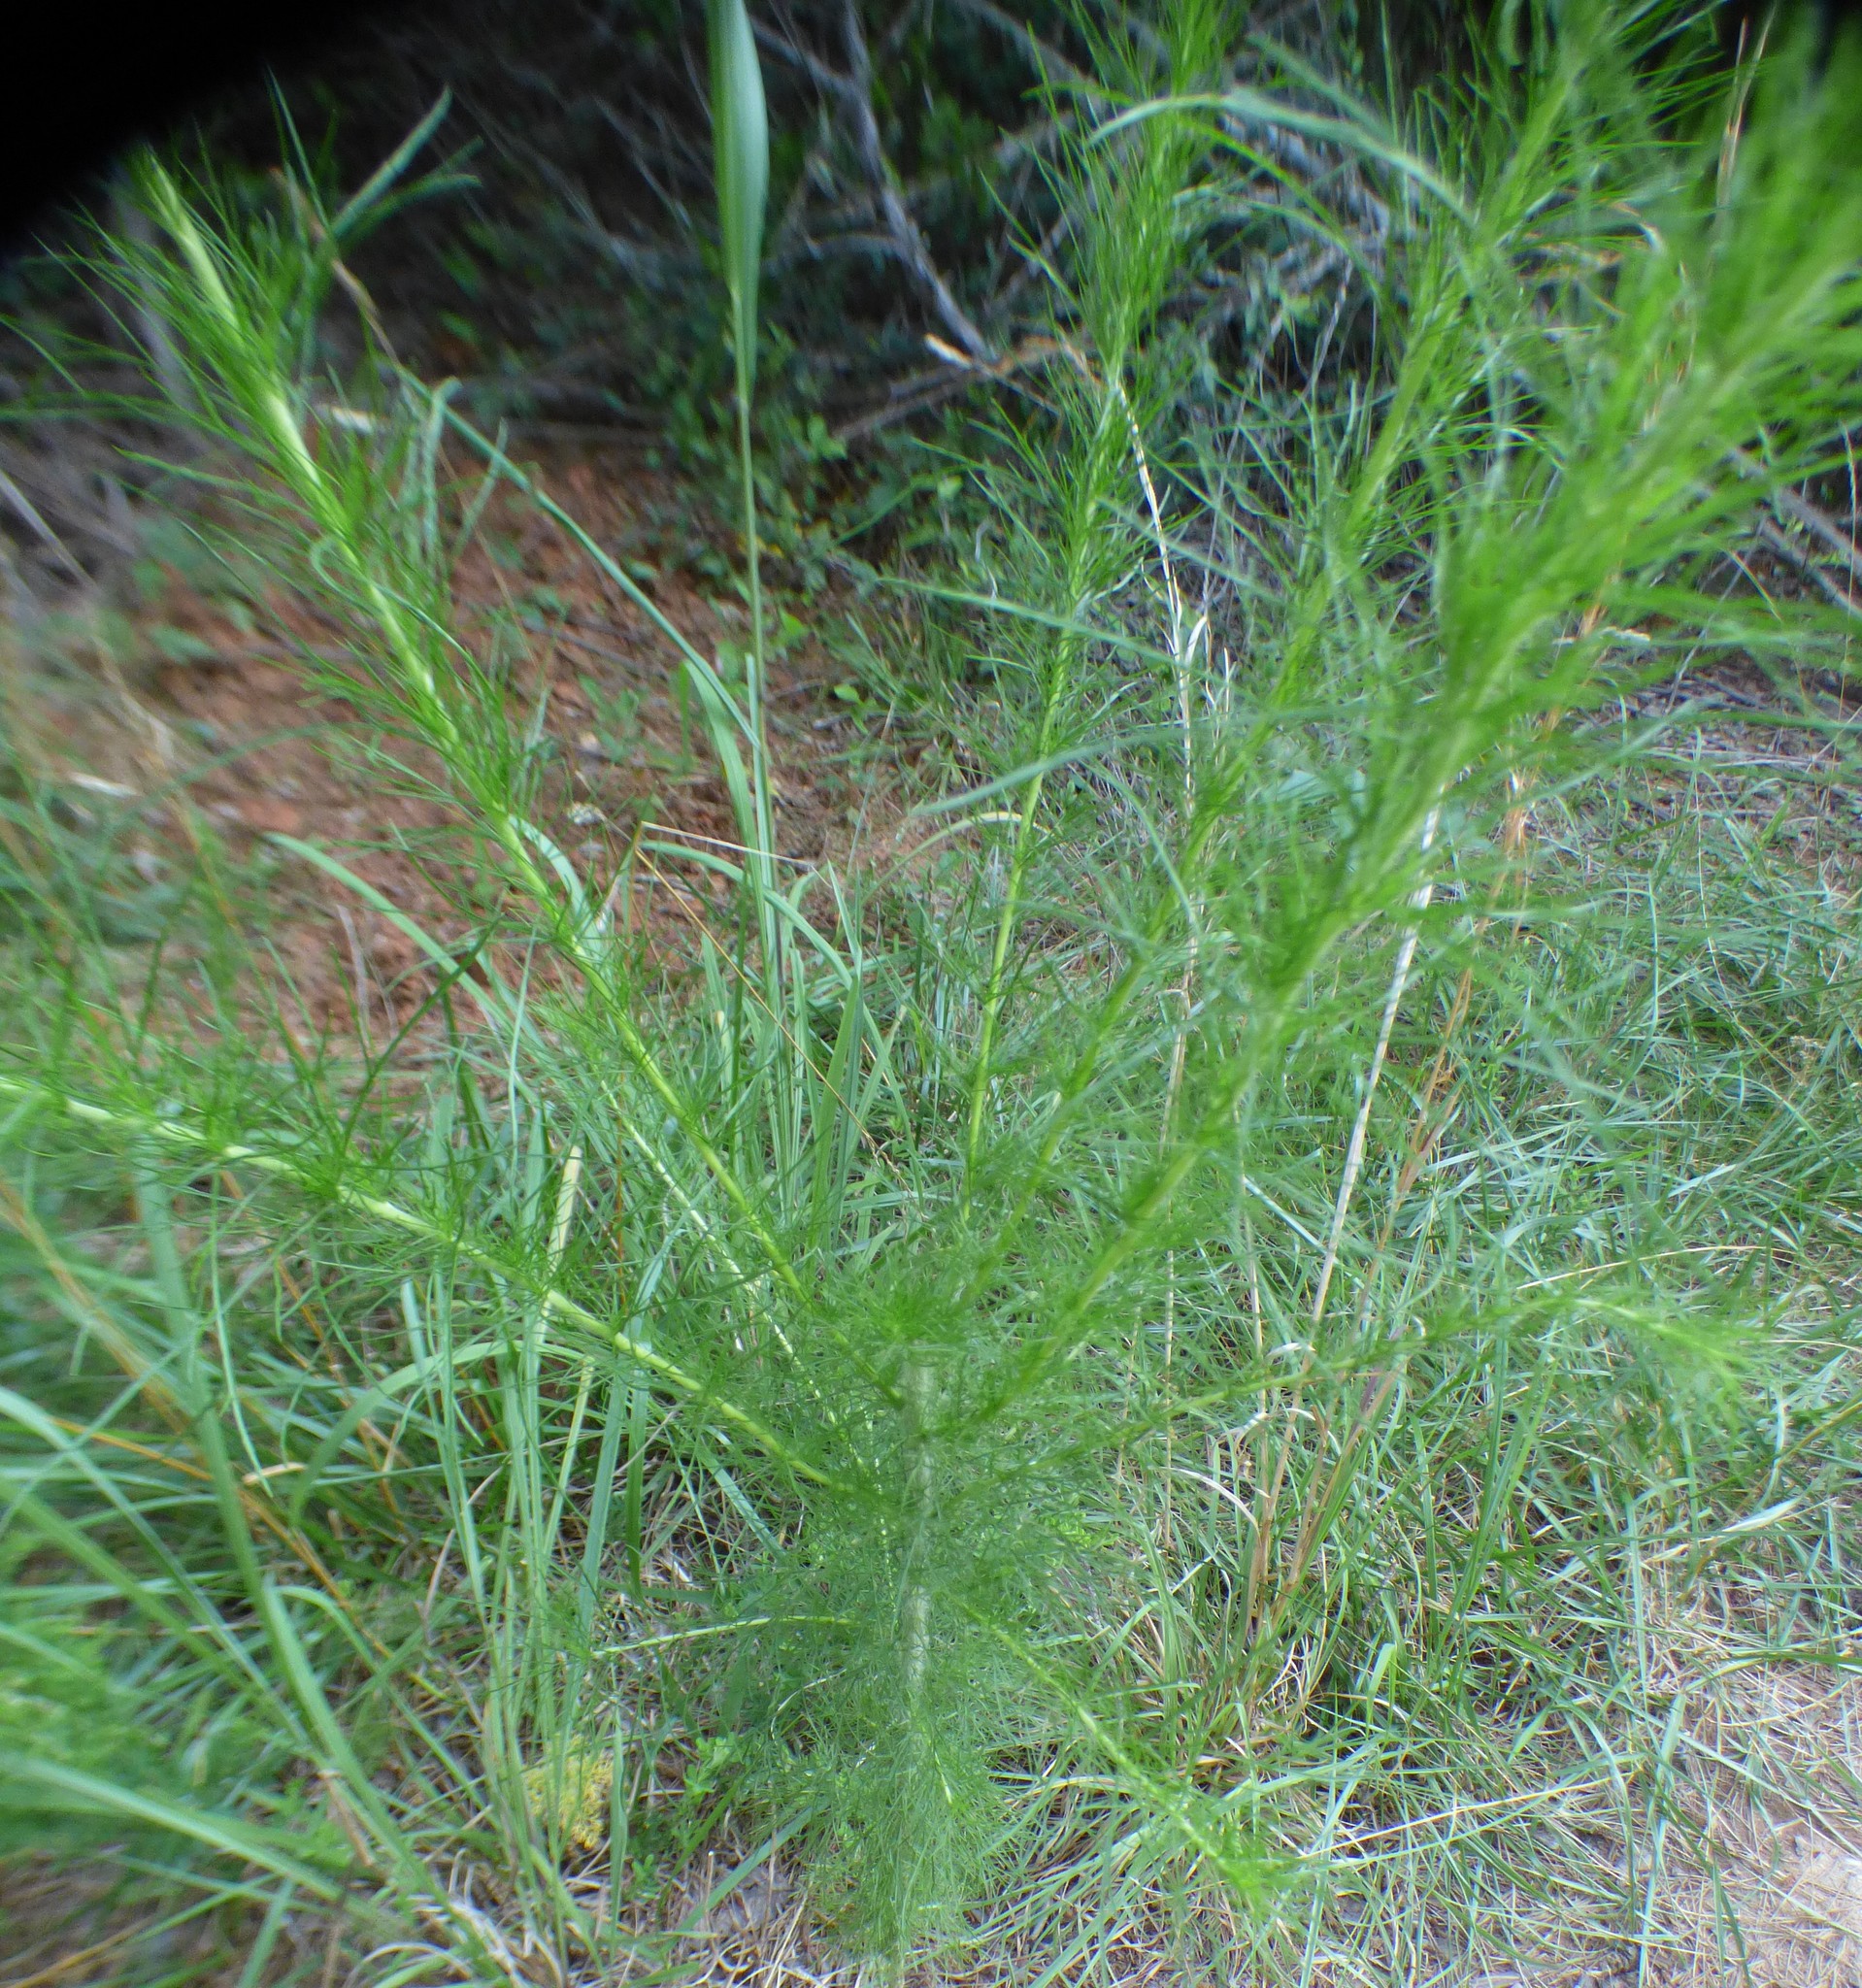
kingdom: Plantae
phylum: Tracheophyta
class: Magnoliopsida
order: Asterales
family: Asteraceae
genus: Eupatorium
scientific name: Eupatorium capillifolium
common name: Dog-fennel
